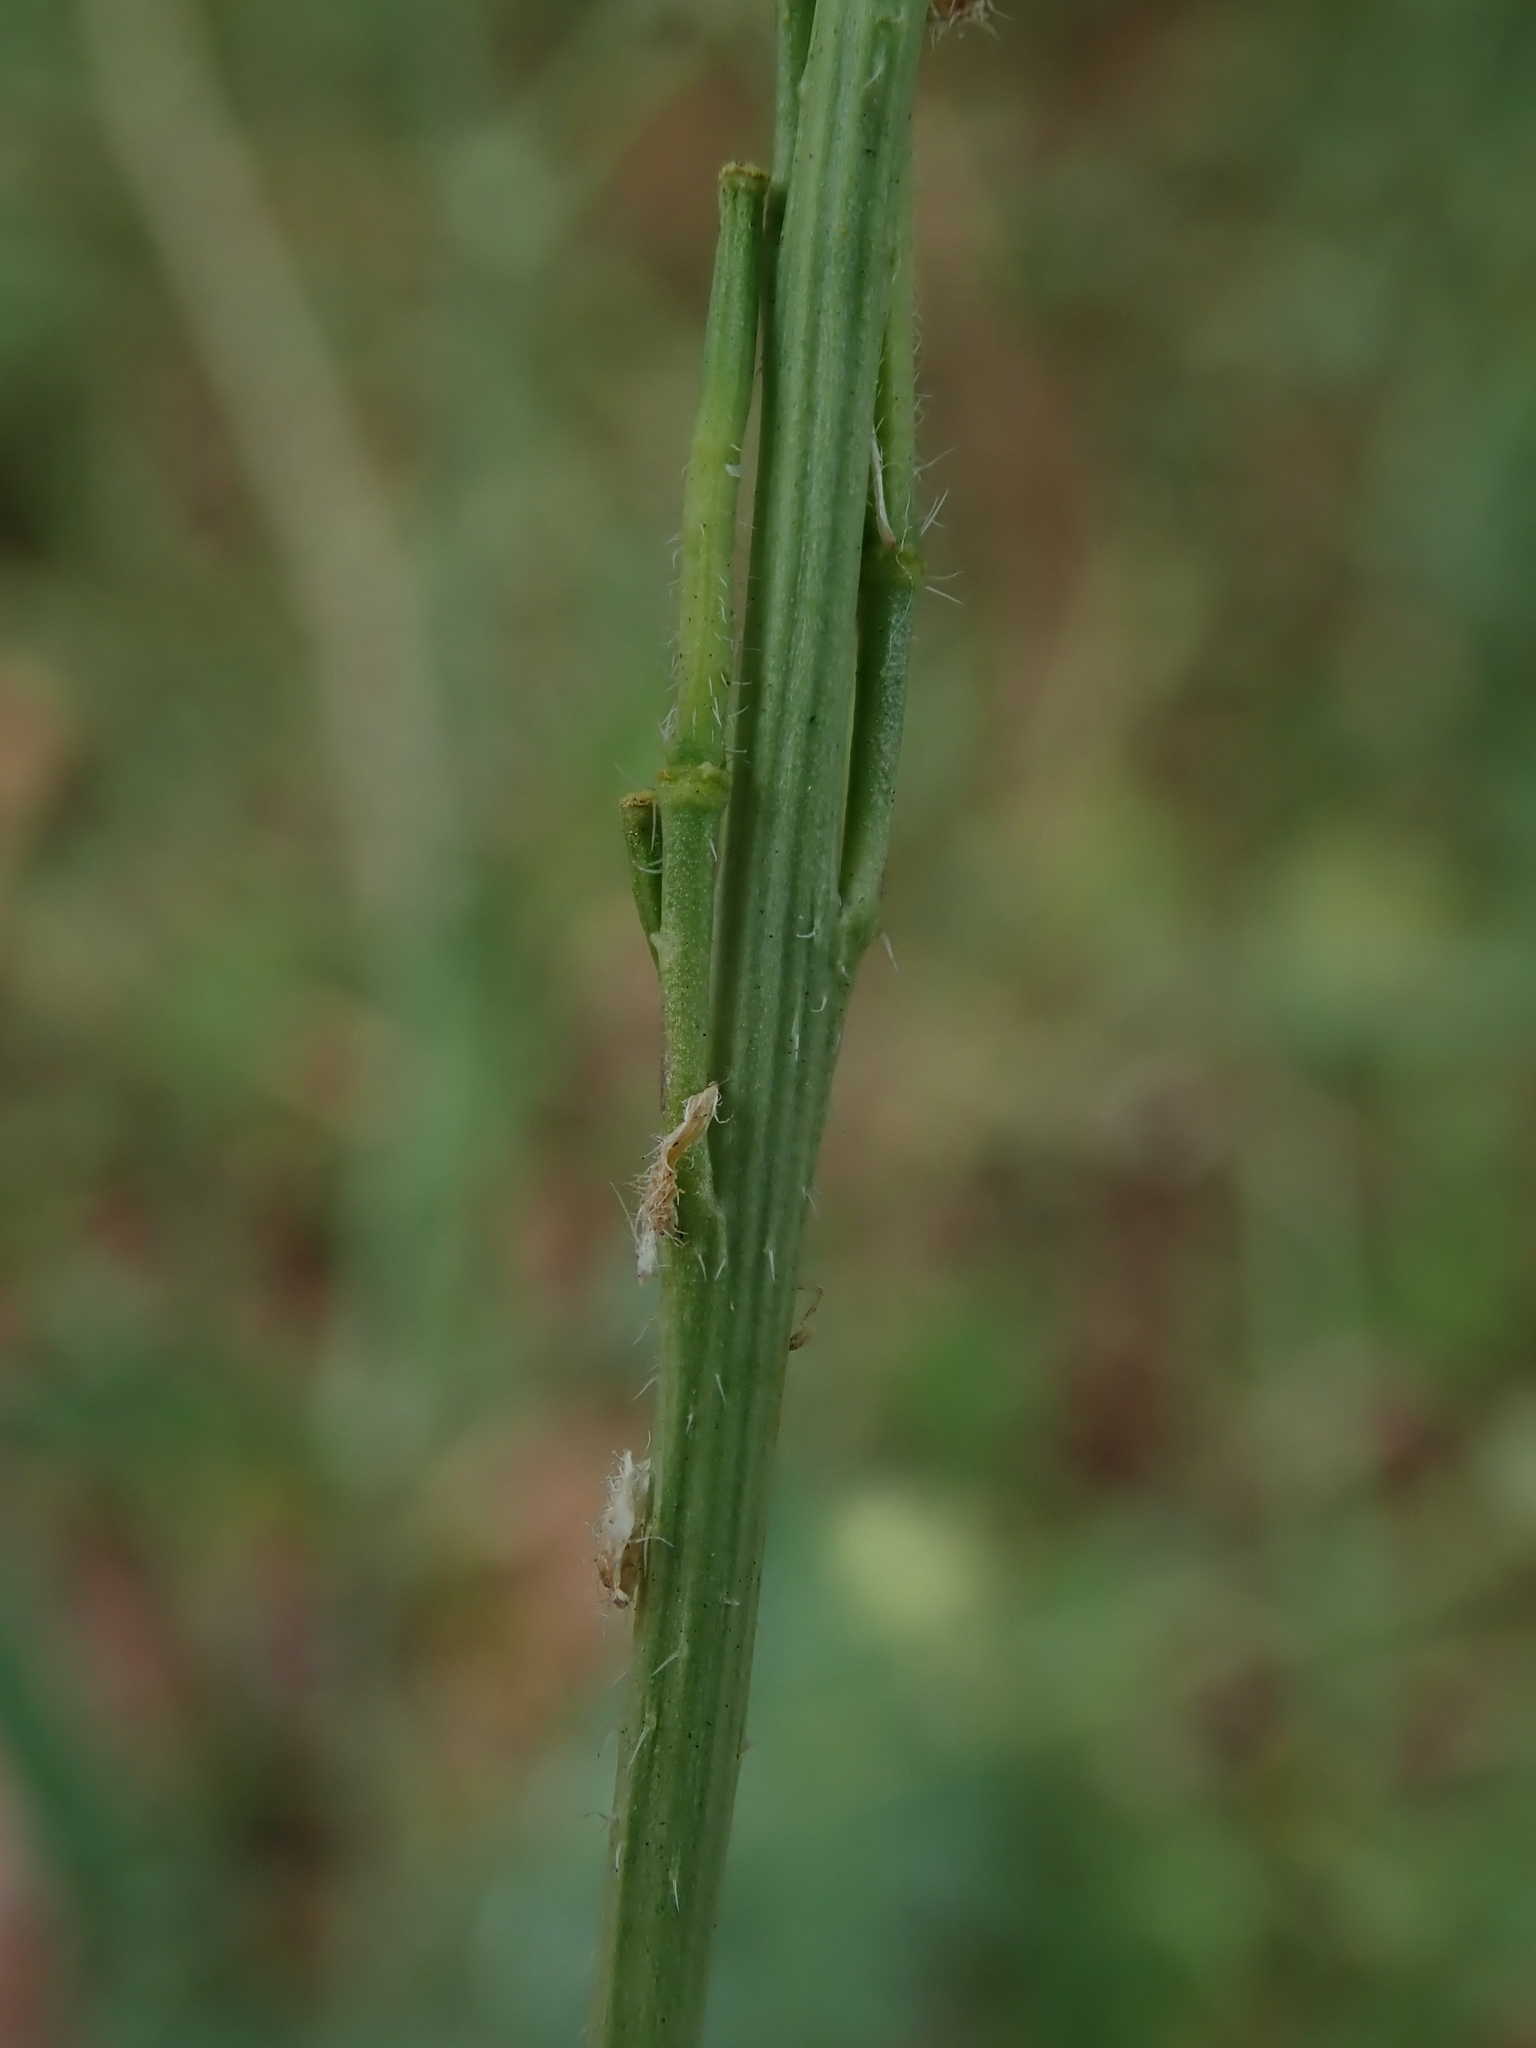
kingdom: Plantae
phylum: Tracheophyta
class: Magnoliopsida
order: Brassicales
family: Brassicaceae
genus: Hirschfeldia
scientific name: Hirschfeldia incana
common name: Hoary mustard
